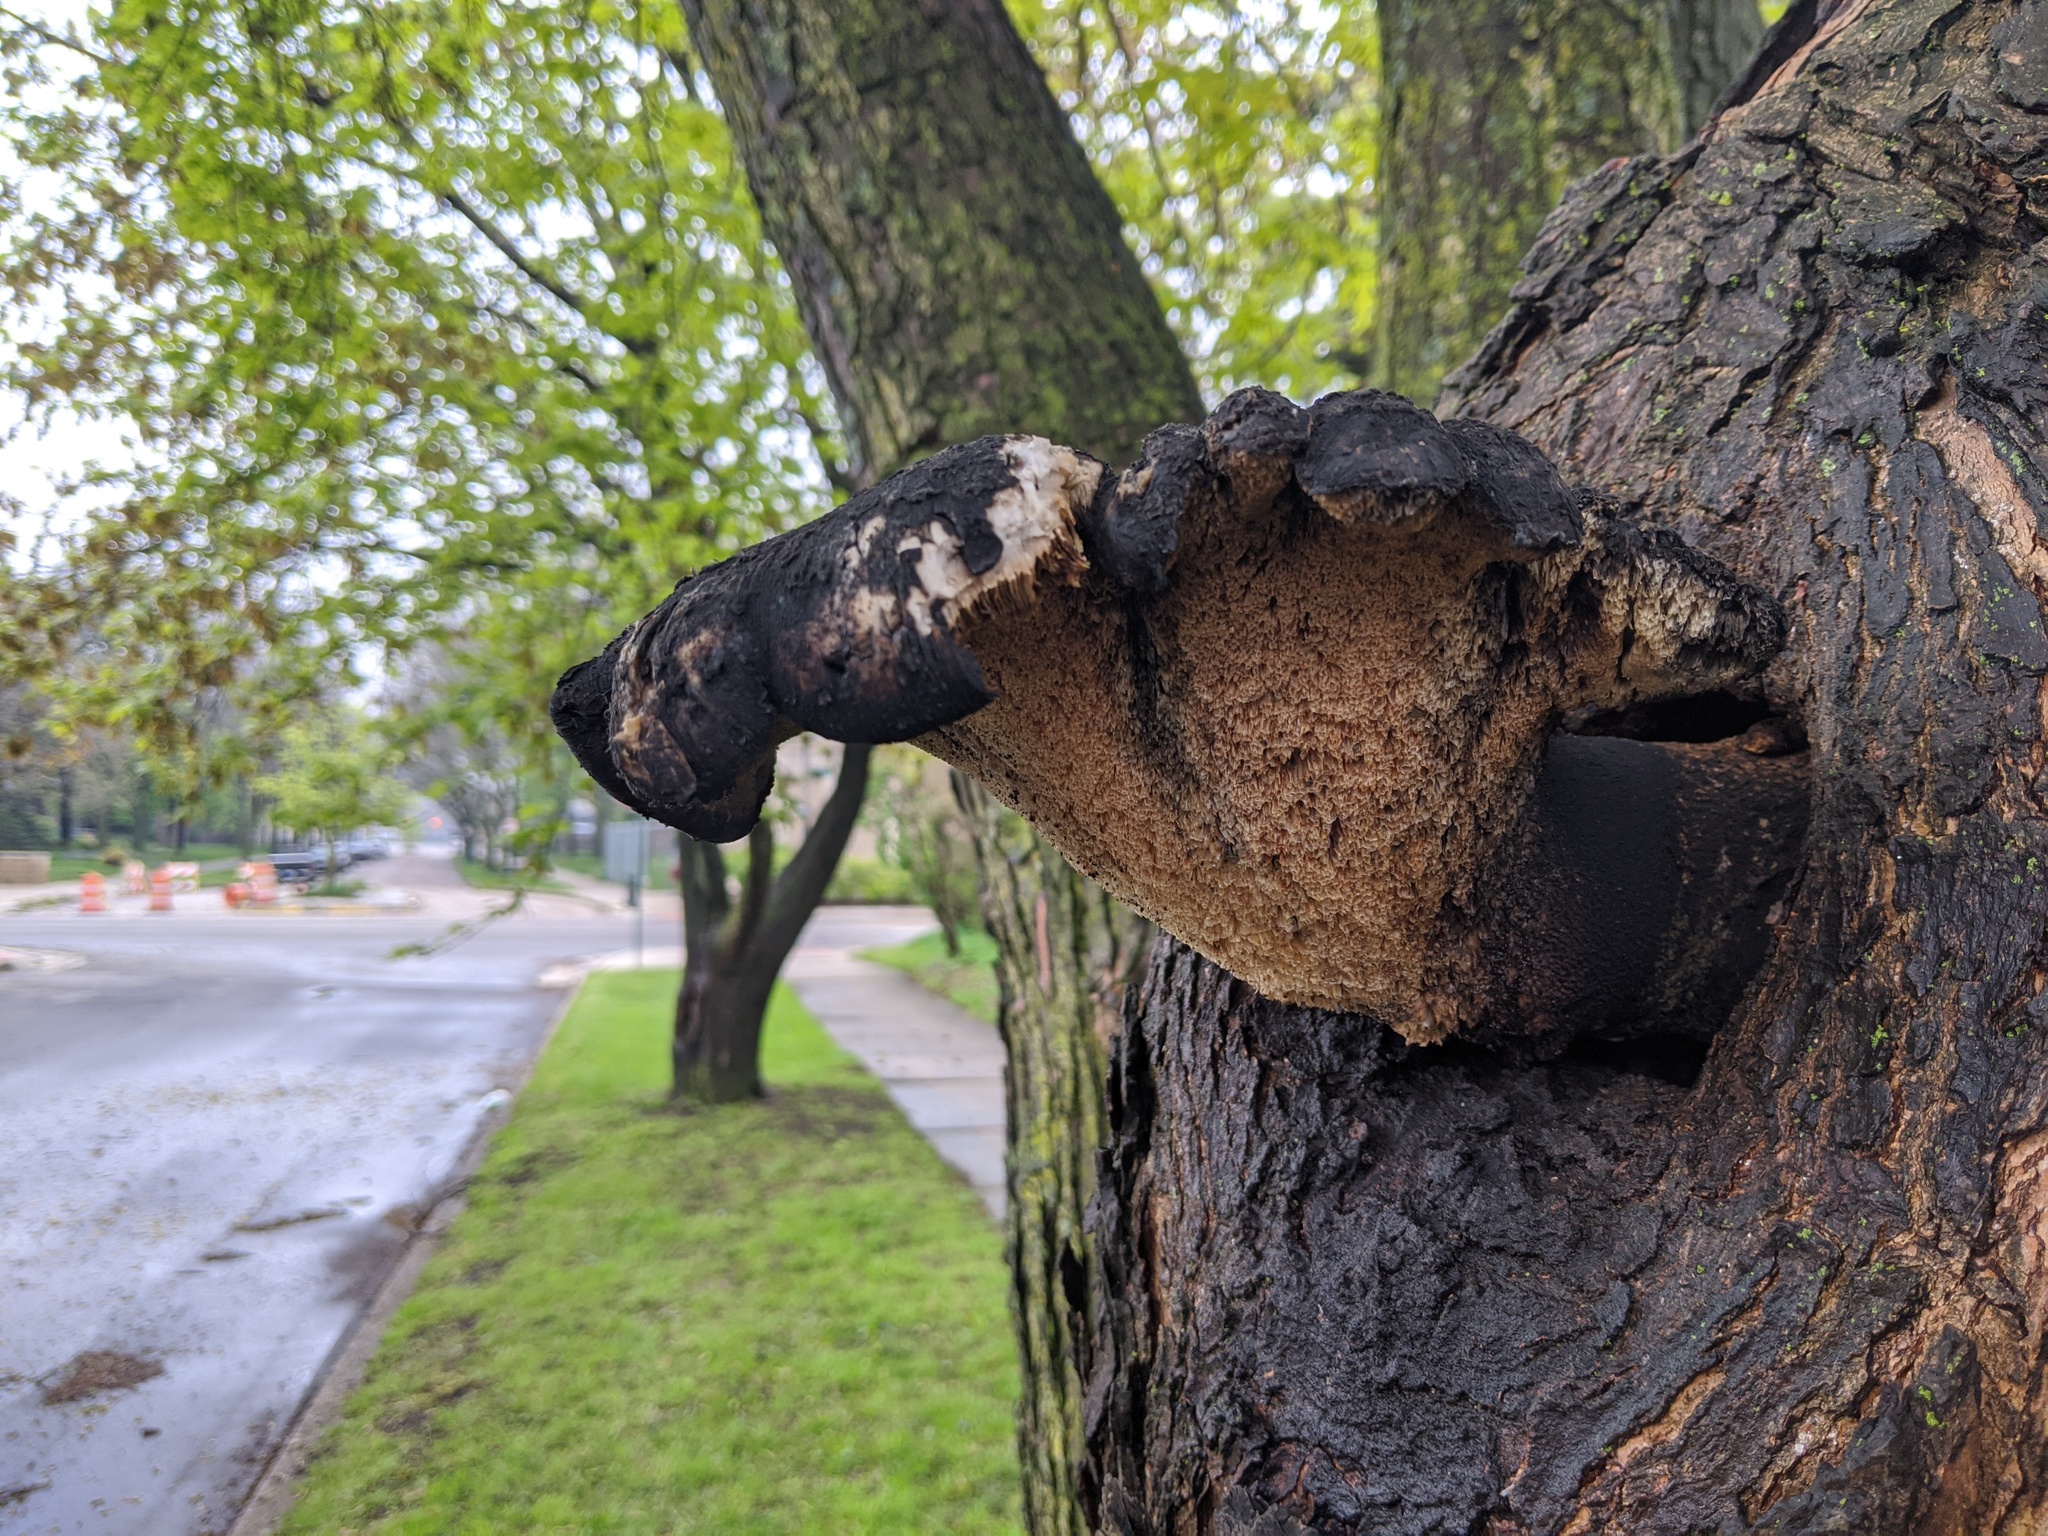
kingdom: Fungi
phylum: Basidiomycota
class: Agaricomycetes
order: Polyporales
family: Polyporaceae
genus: Cerioporus
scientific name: Cerioporus squamosus
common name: Dryad's saddle
